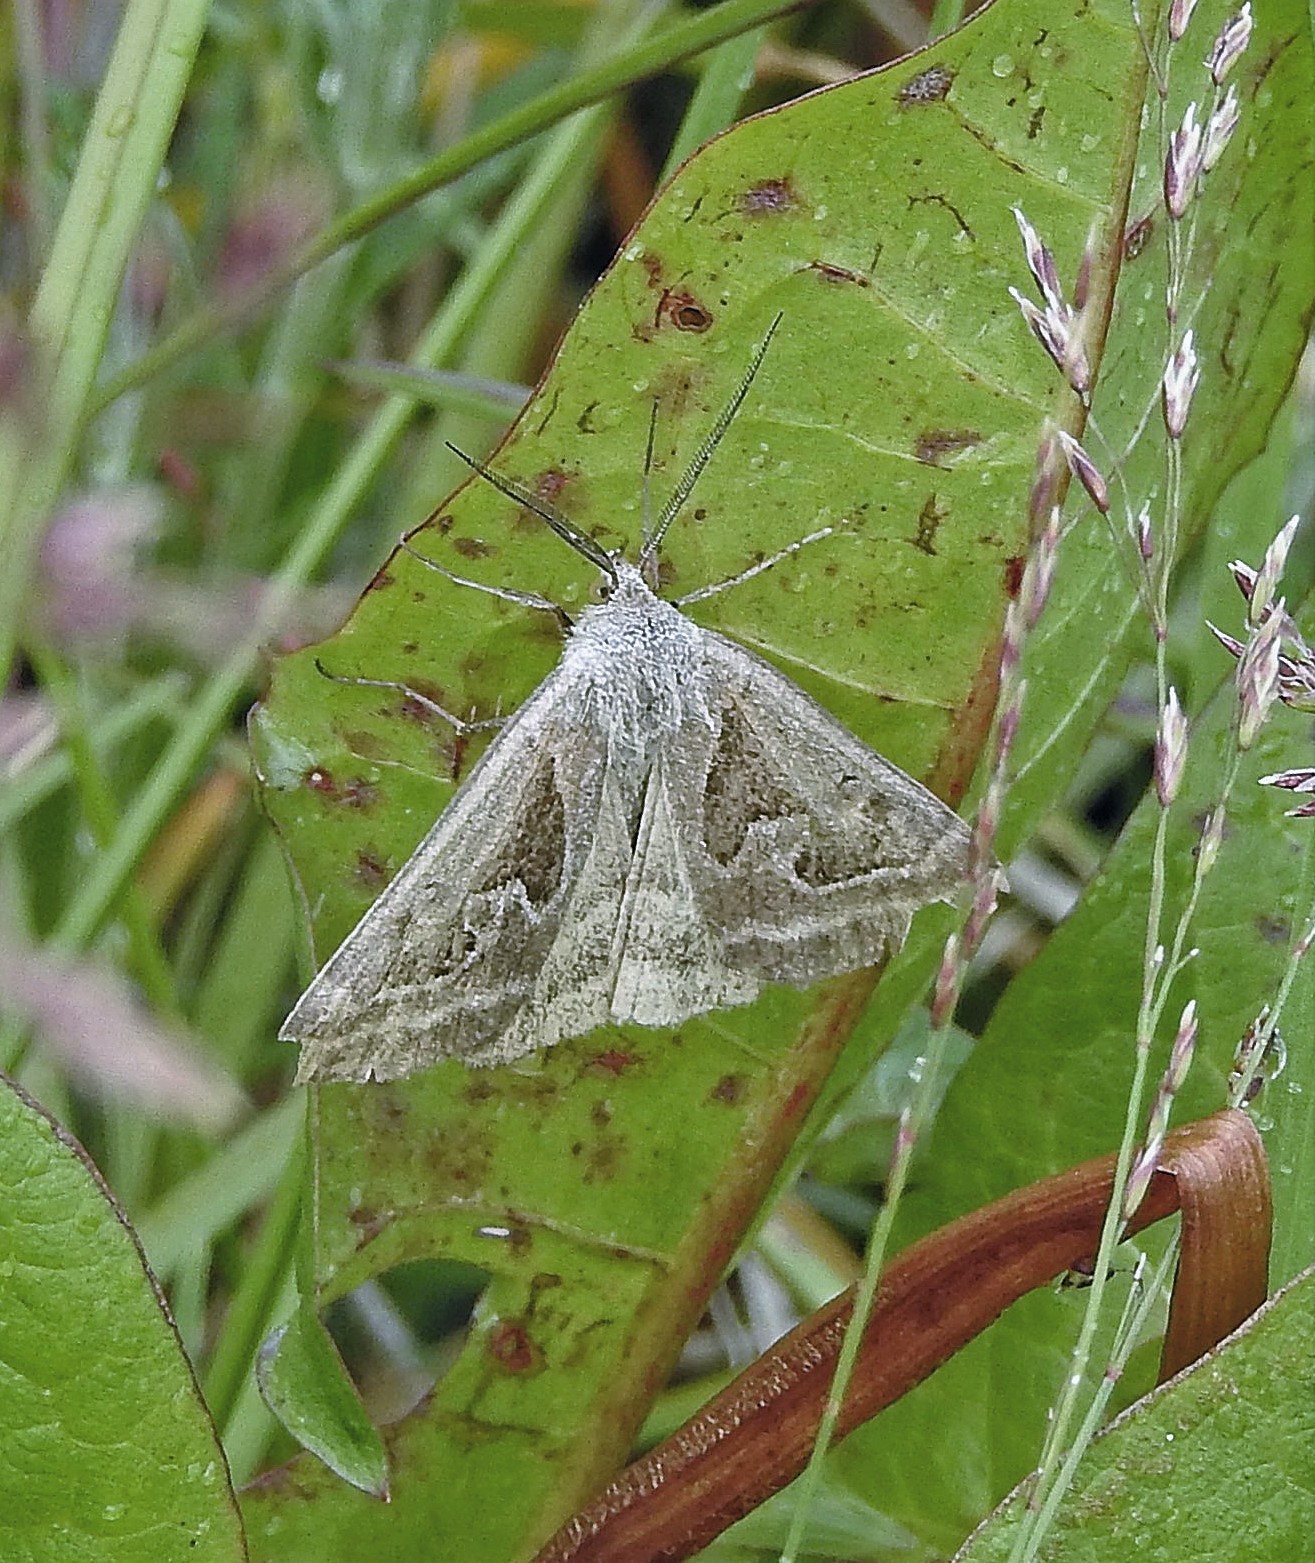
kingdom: Animalia
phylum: Arthropoda
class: Insecta
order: Lepidoptera
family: Erebidae
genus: Caenurgia
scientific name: Caenurgia runica
